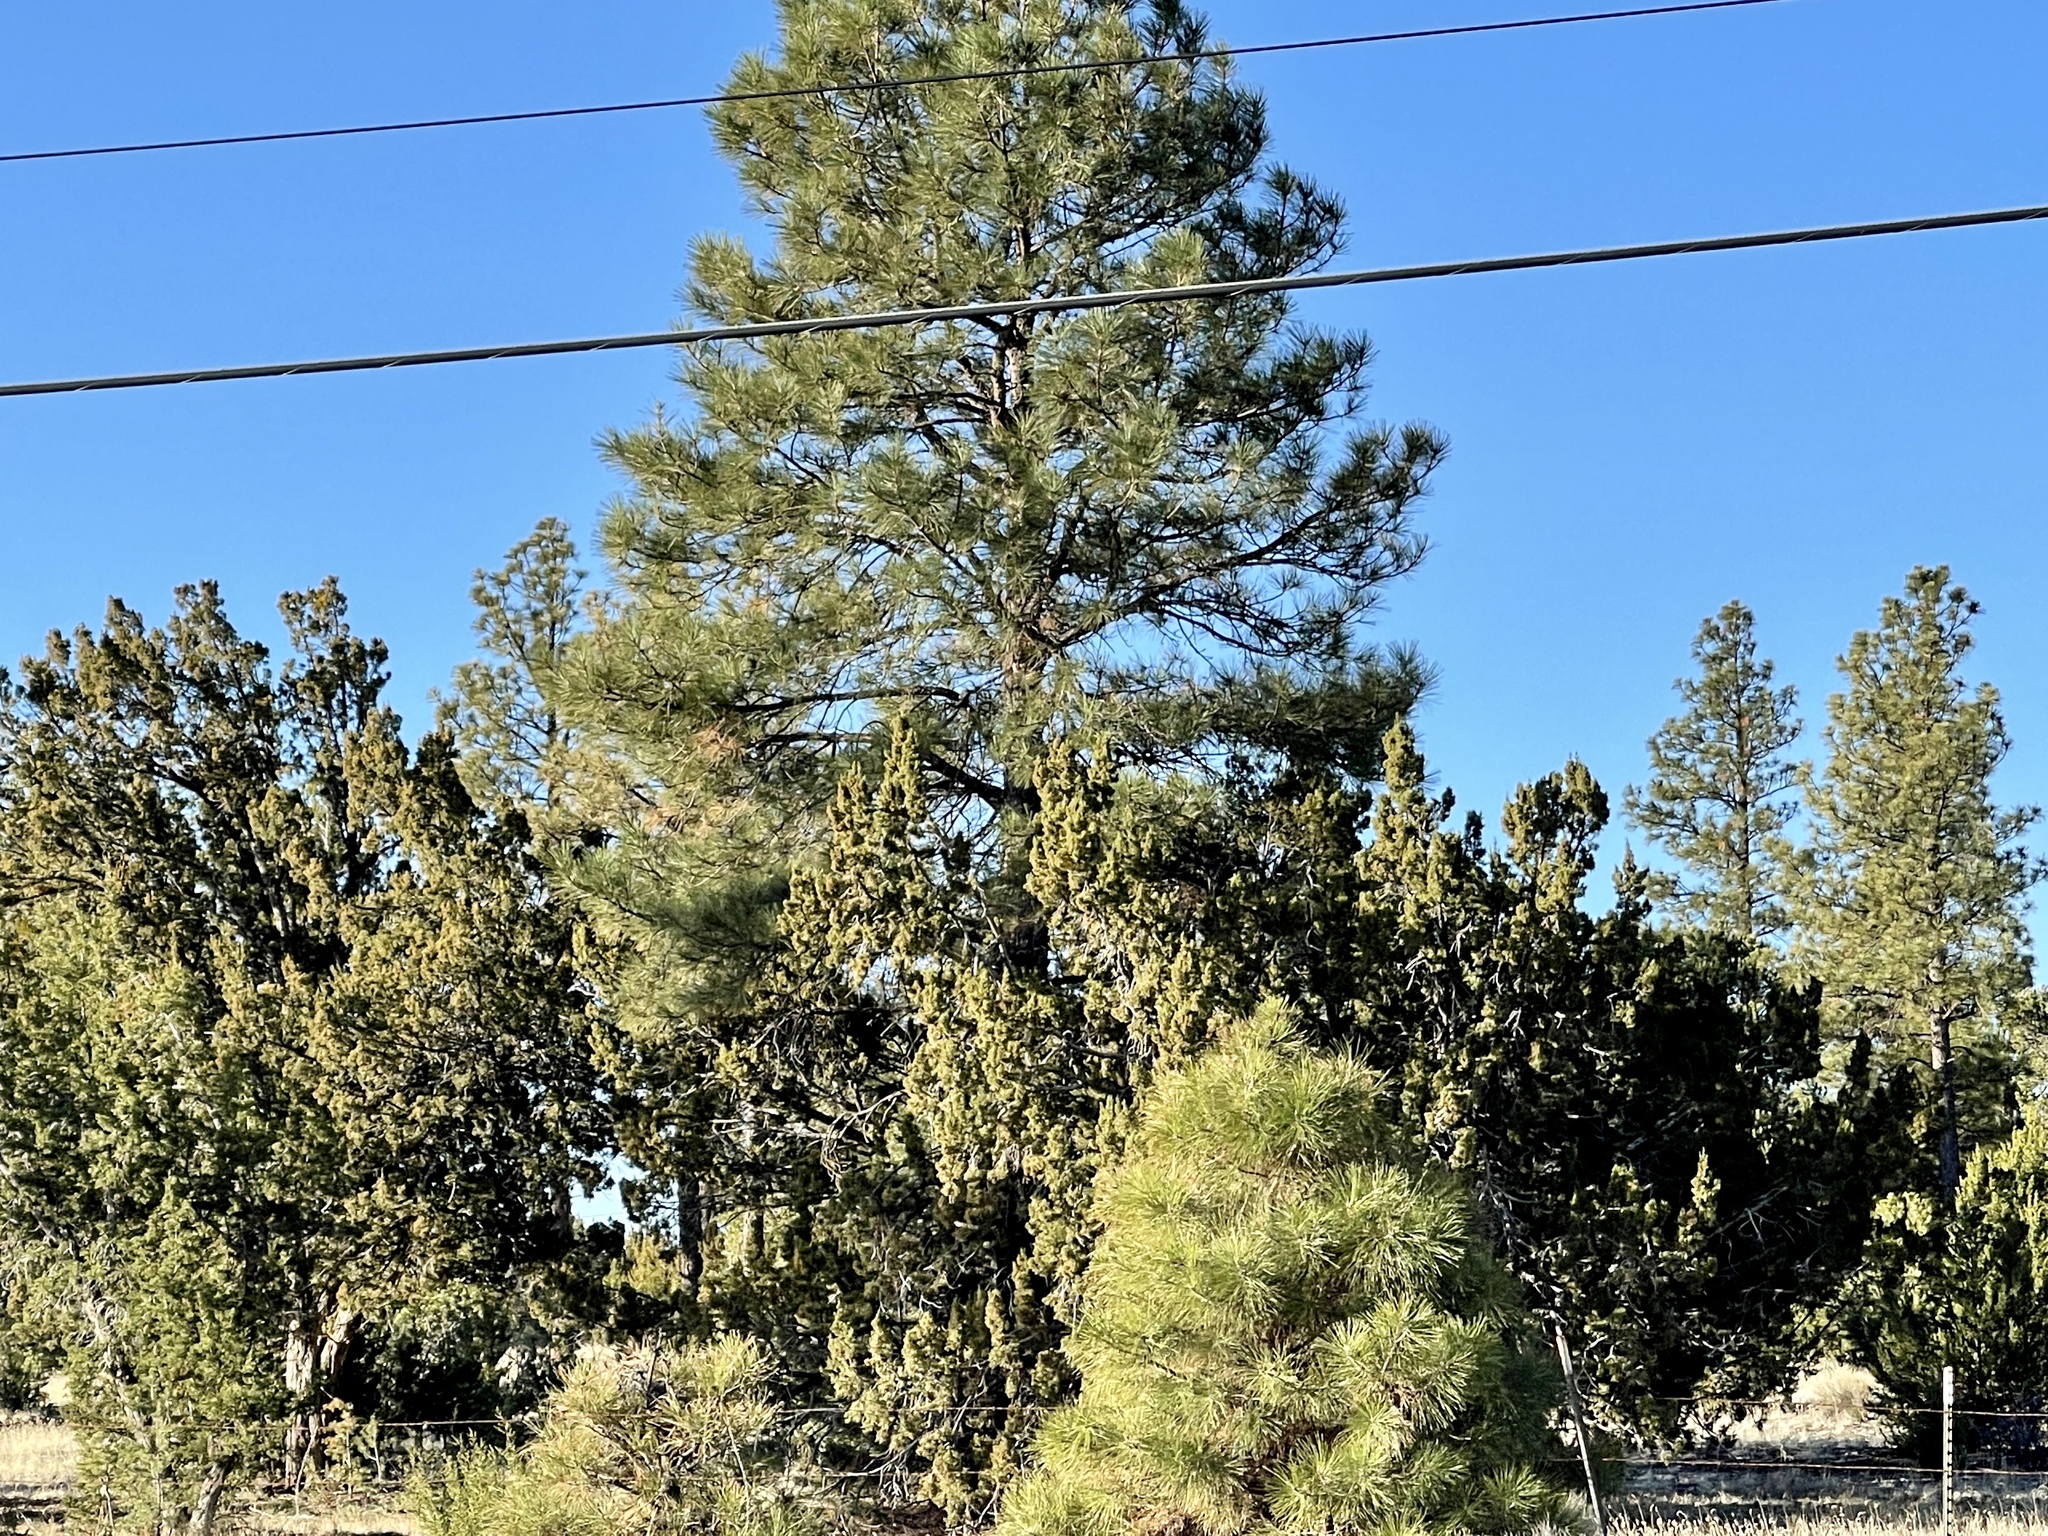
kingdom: Plantae
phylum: Tracheophyta
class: Pinopsida
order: Pinales
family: Pinaceae
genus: Pinus
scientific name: Pinus ponderosa
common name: Western yellow-pine
